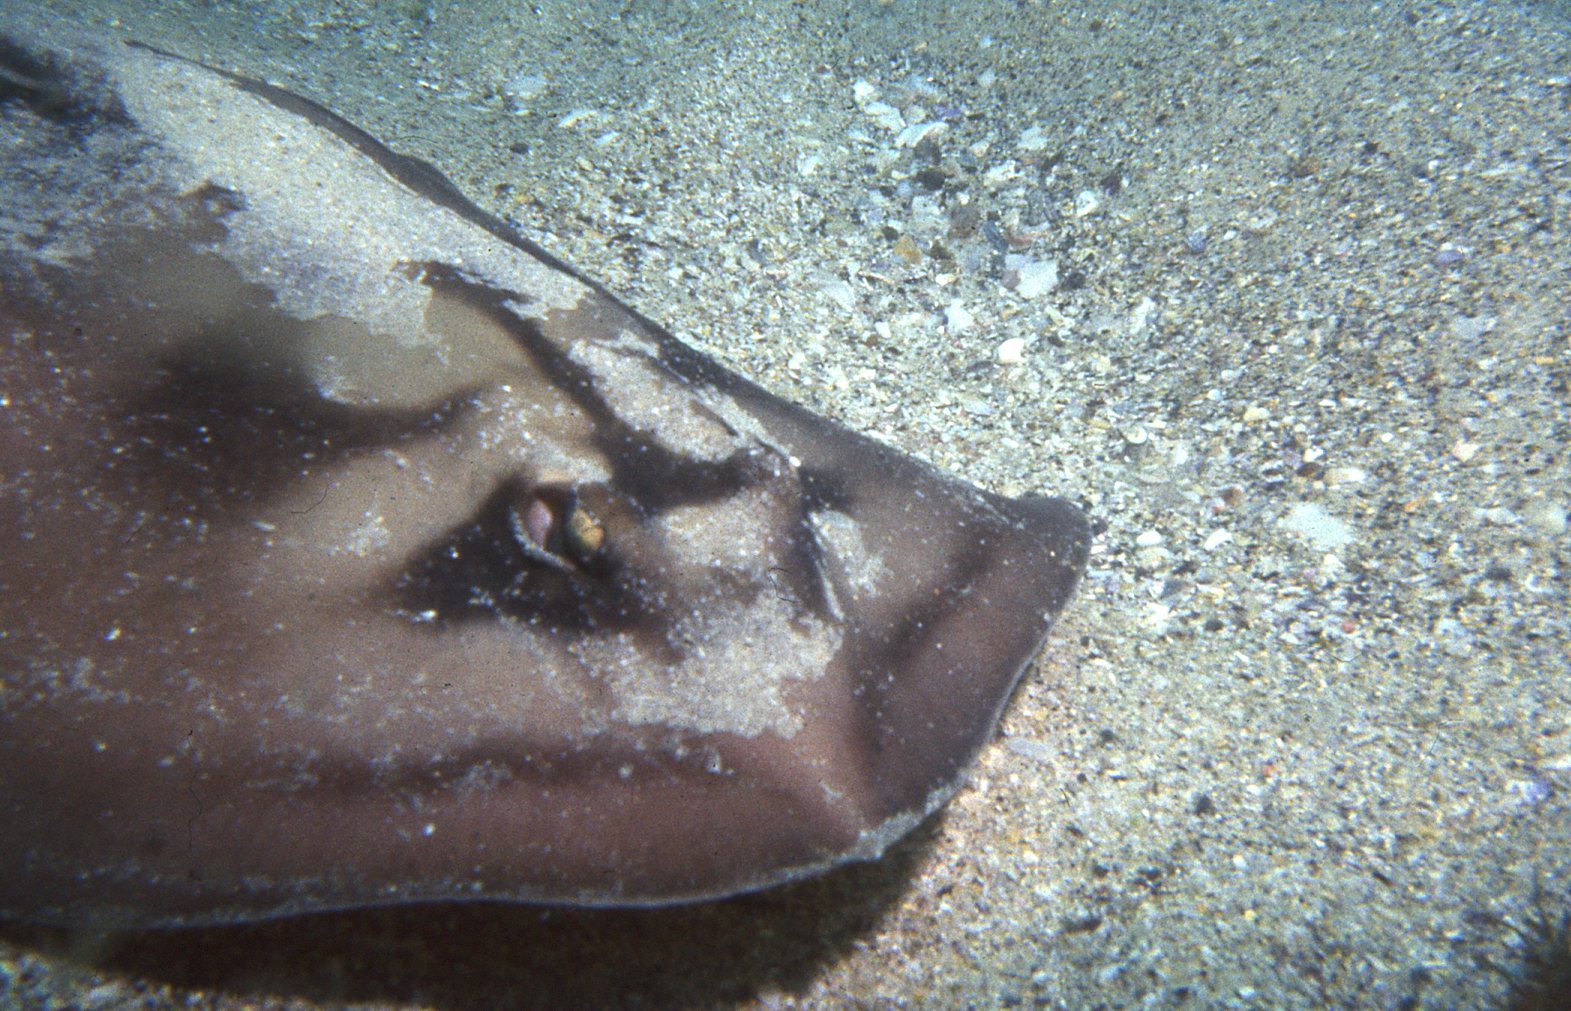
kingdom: Animalia
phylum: Chordata
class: Elasmobranchii
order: Myliobatiformes
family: Urolophidae
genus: Urolophus
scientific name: Urolophus cruciatus
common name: Banded stingaree
